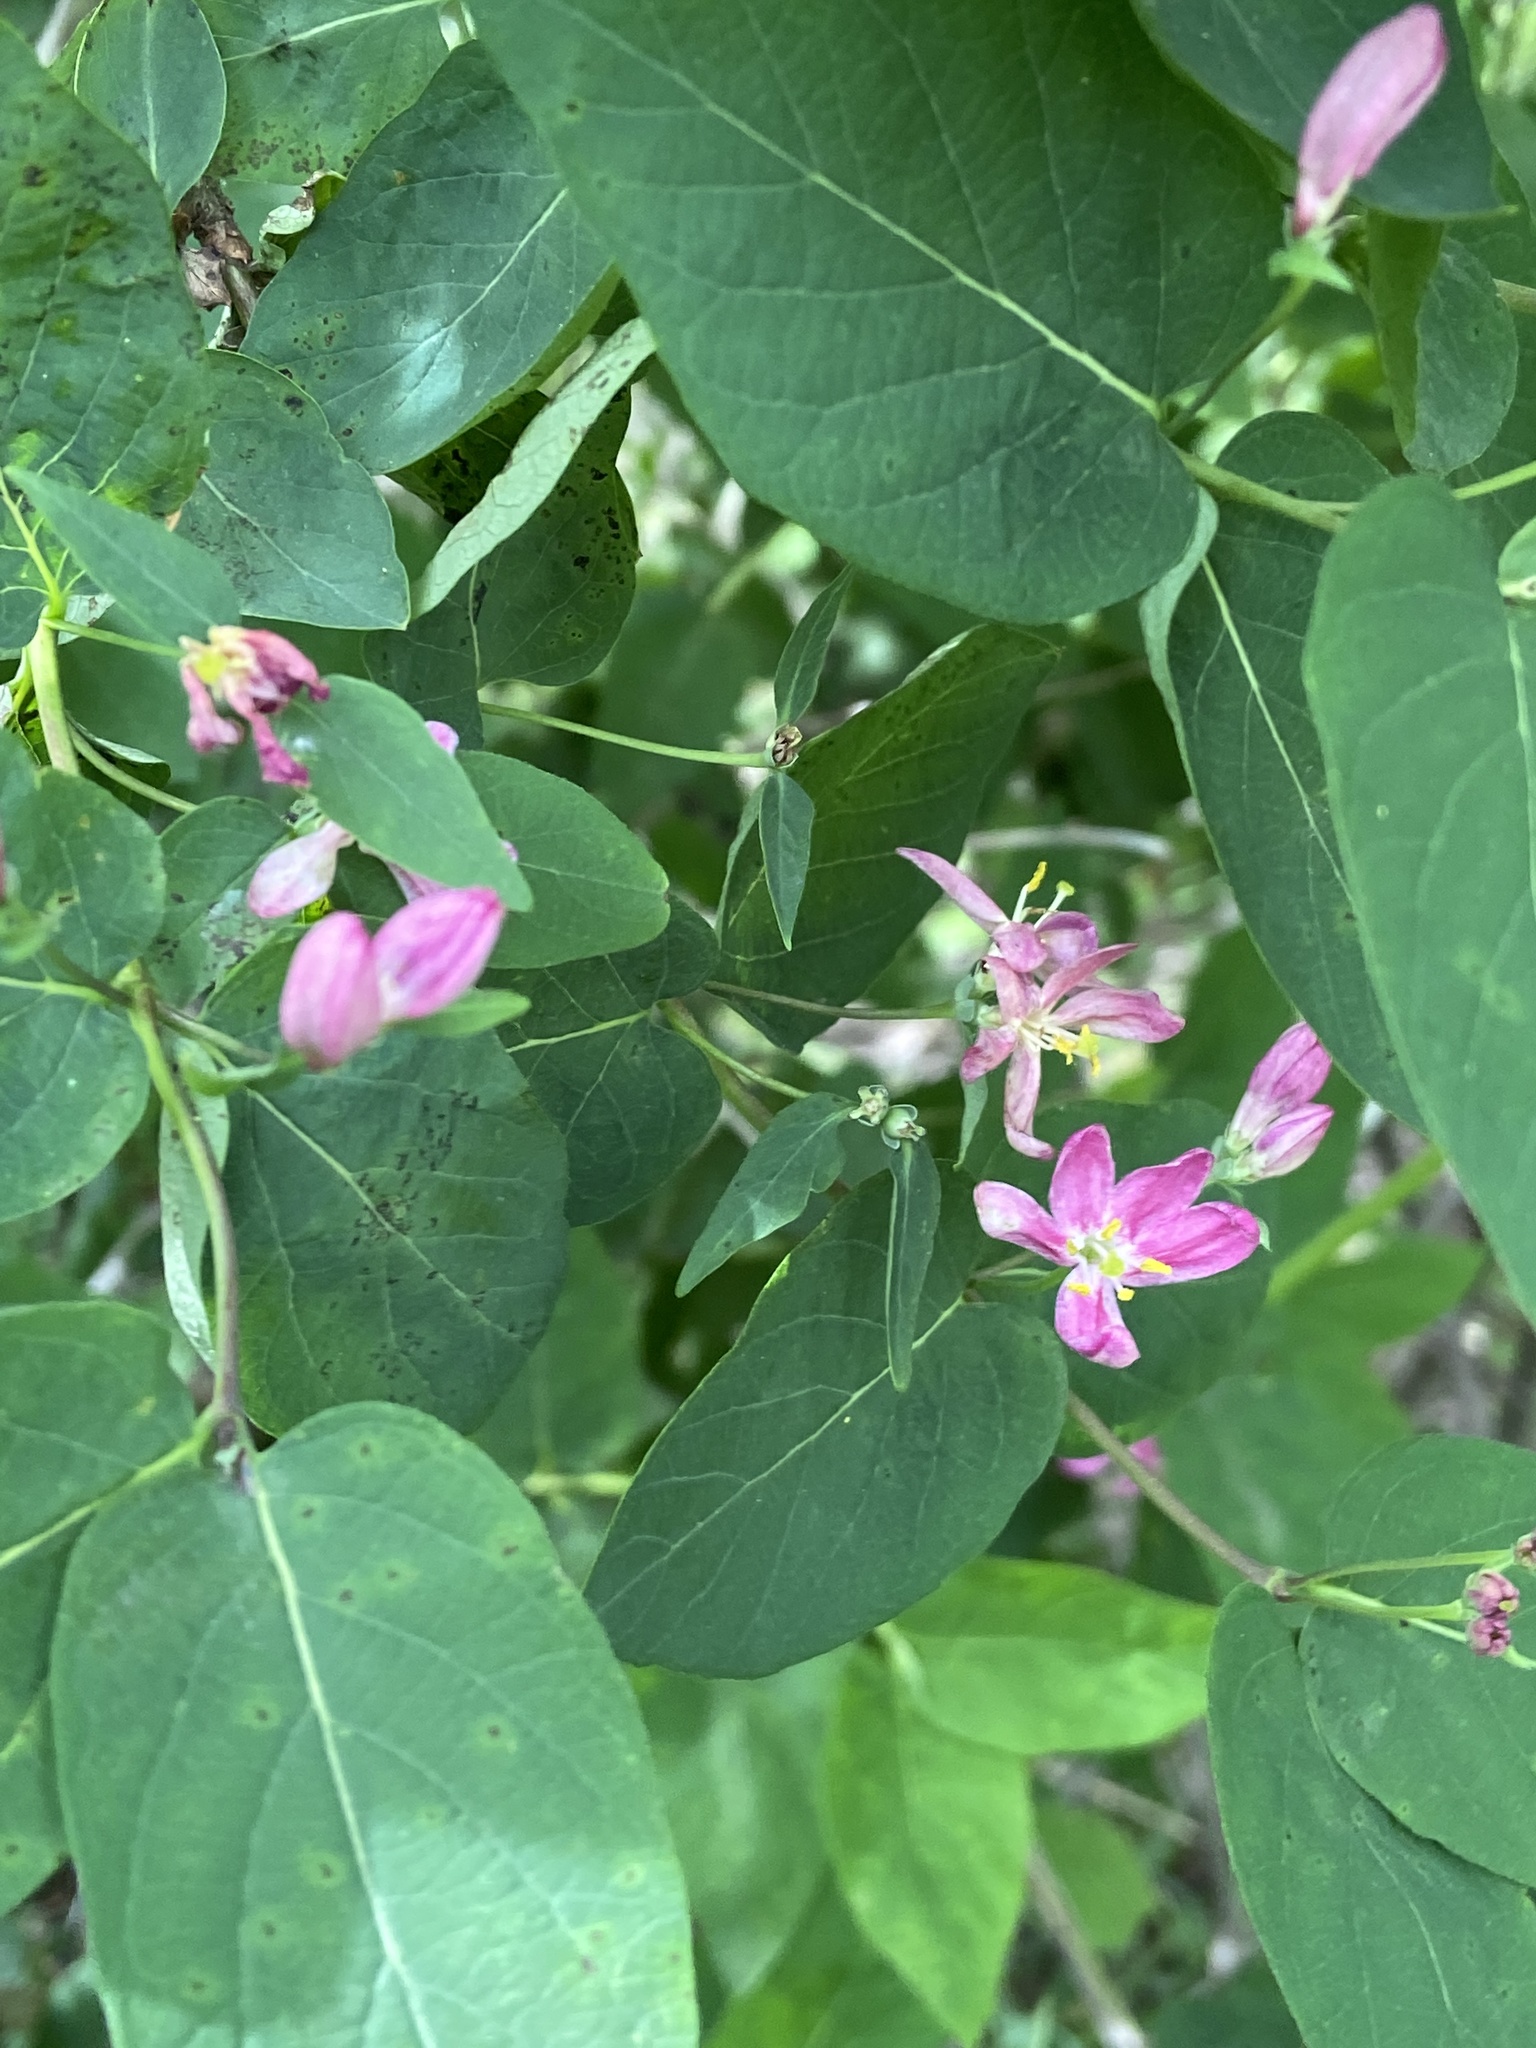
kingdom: Plantae
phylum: Tracheophyta
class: Magnoliopsida
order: Dipsacales
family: Caprifoliaceae
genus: Lonicera
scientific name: Lonicera tatarica
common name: Tatarian honeysuckle
